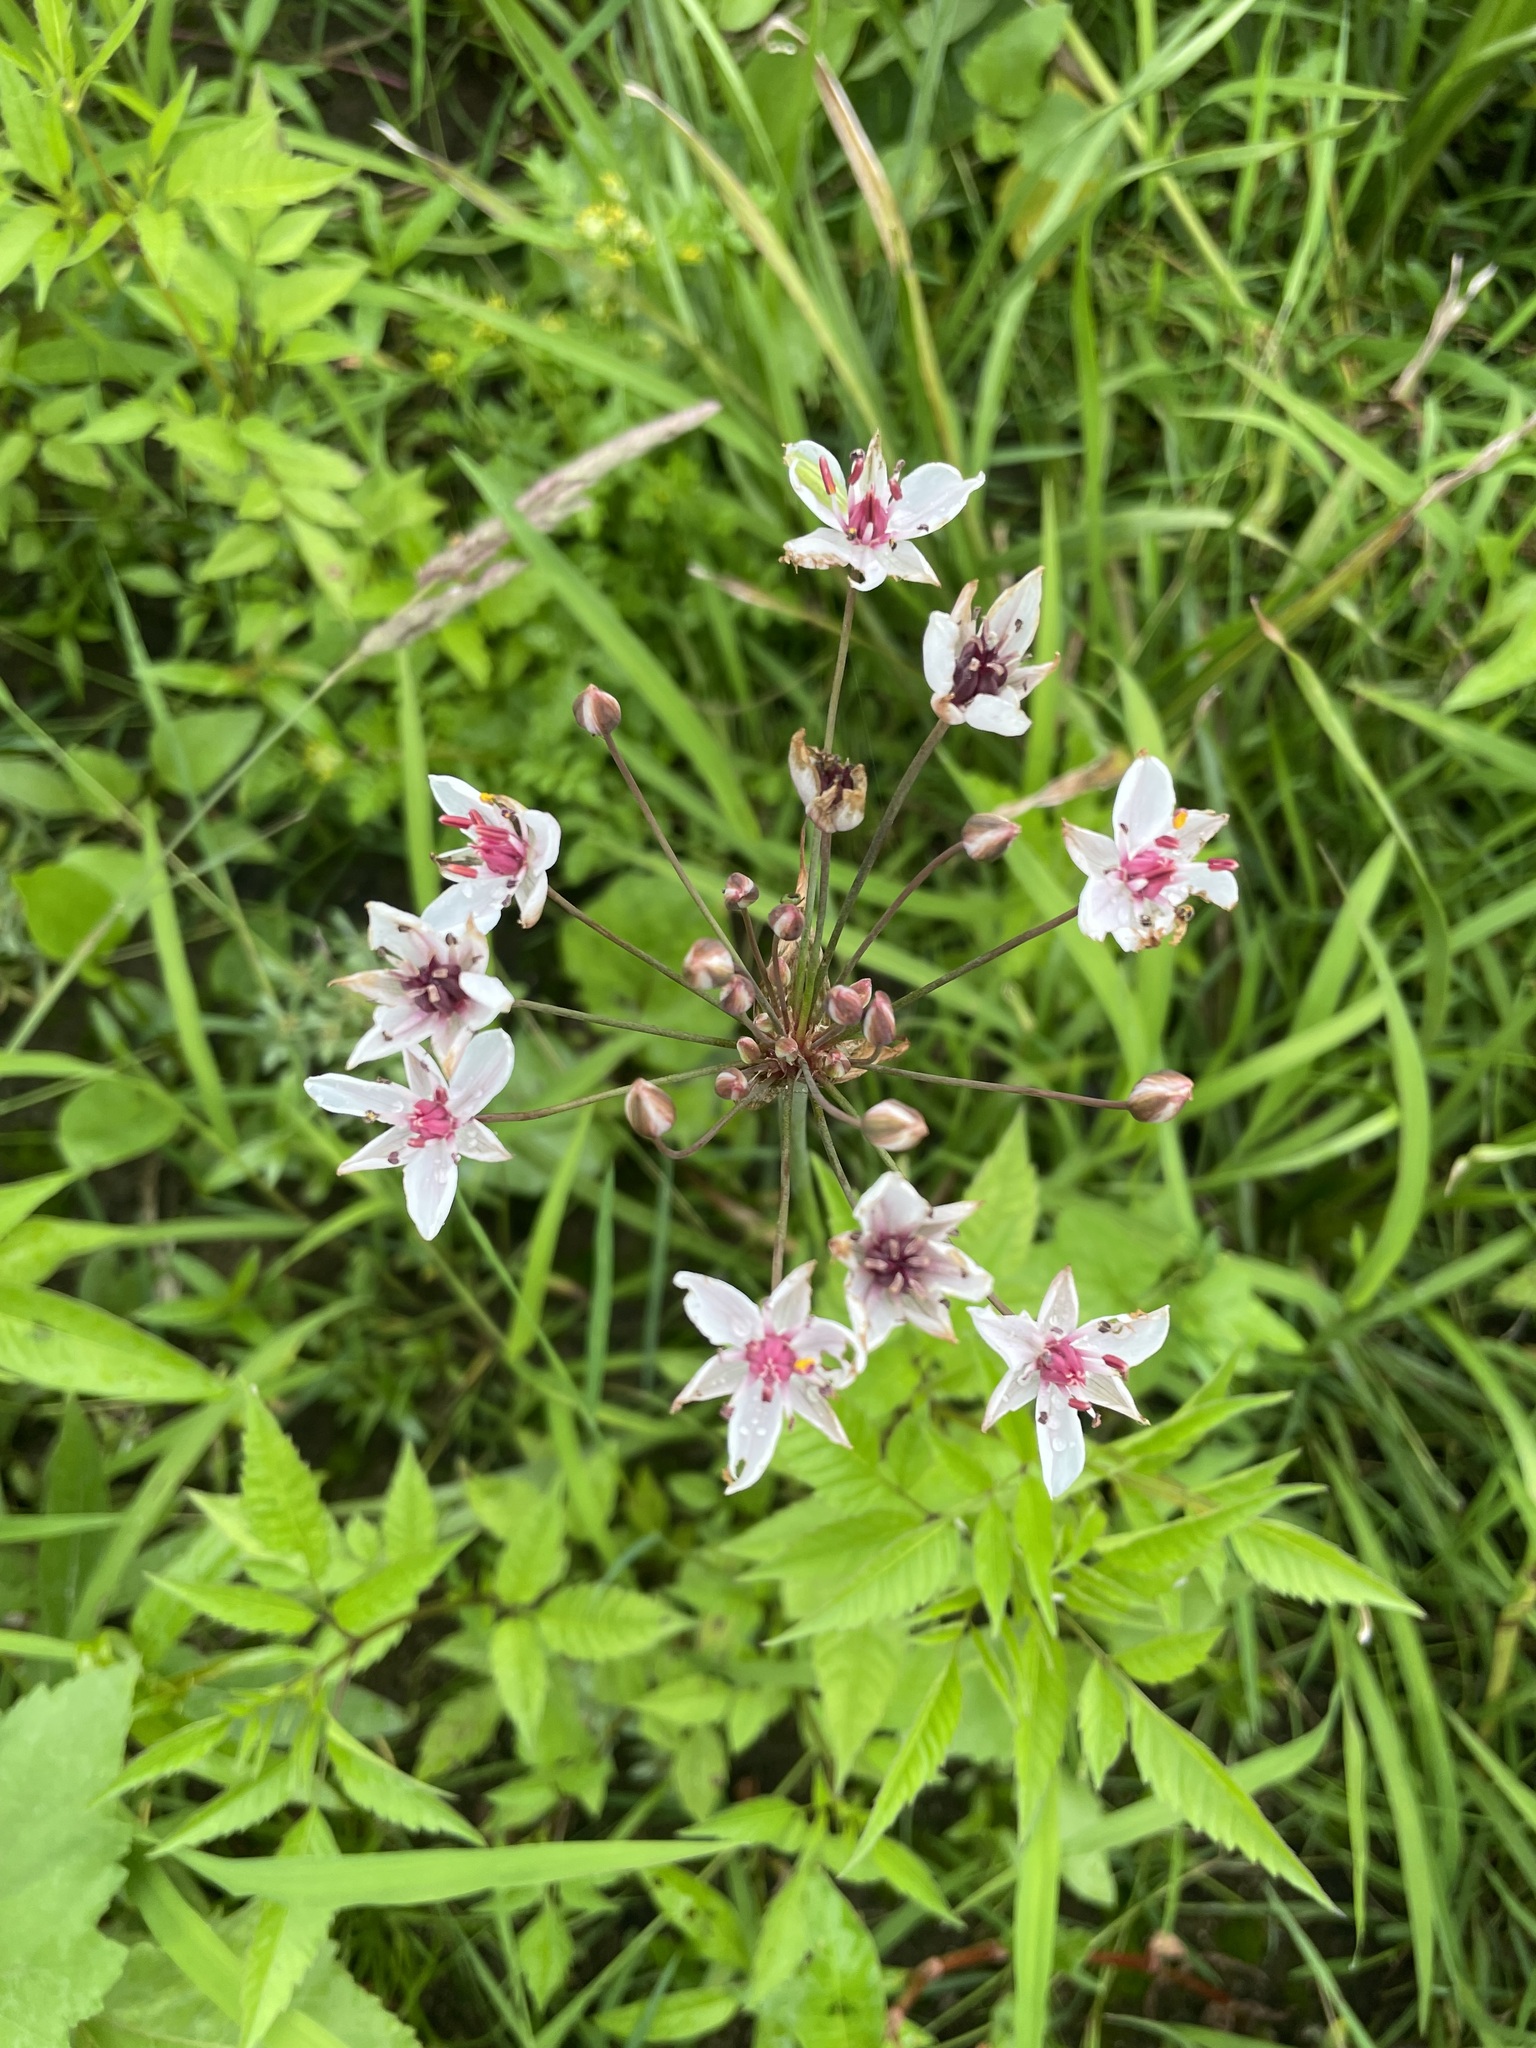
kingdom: Plantae
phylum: Tracheophyta
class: Liliopsida
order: Alismatales
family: Butomaceae
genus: Butomus
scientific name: Butomus umbellatus
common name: Flowering-rush
